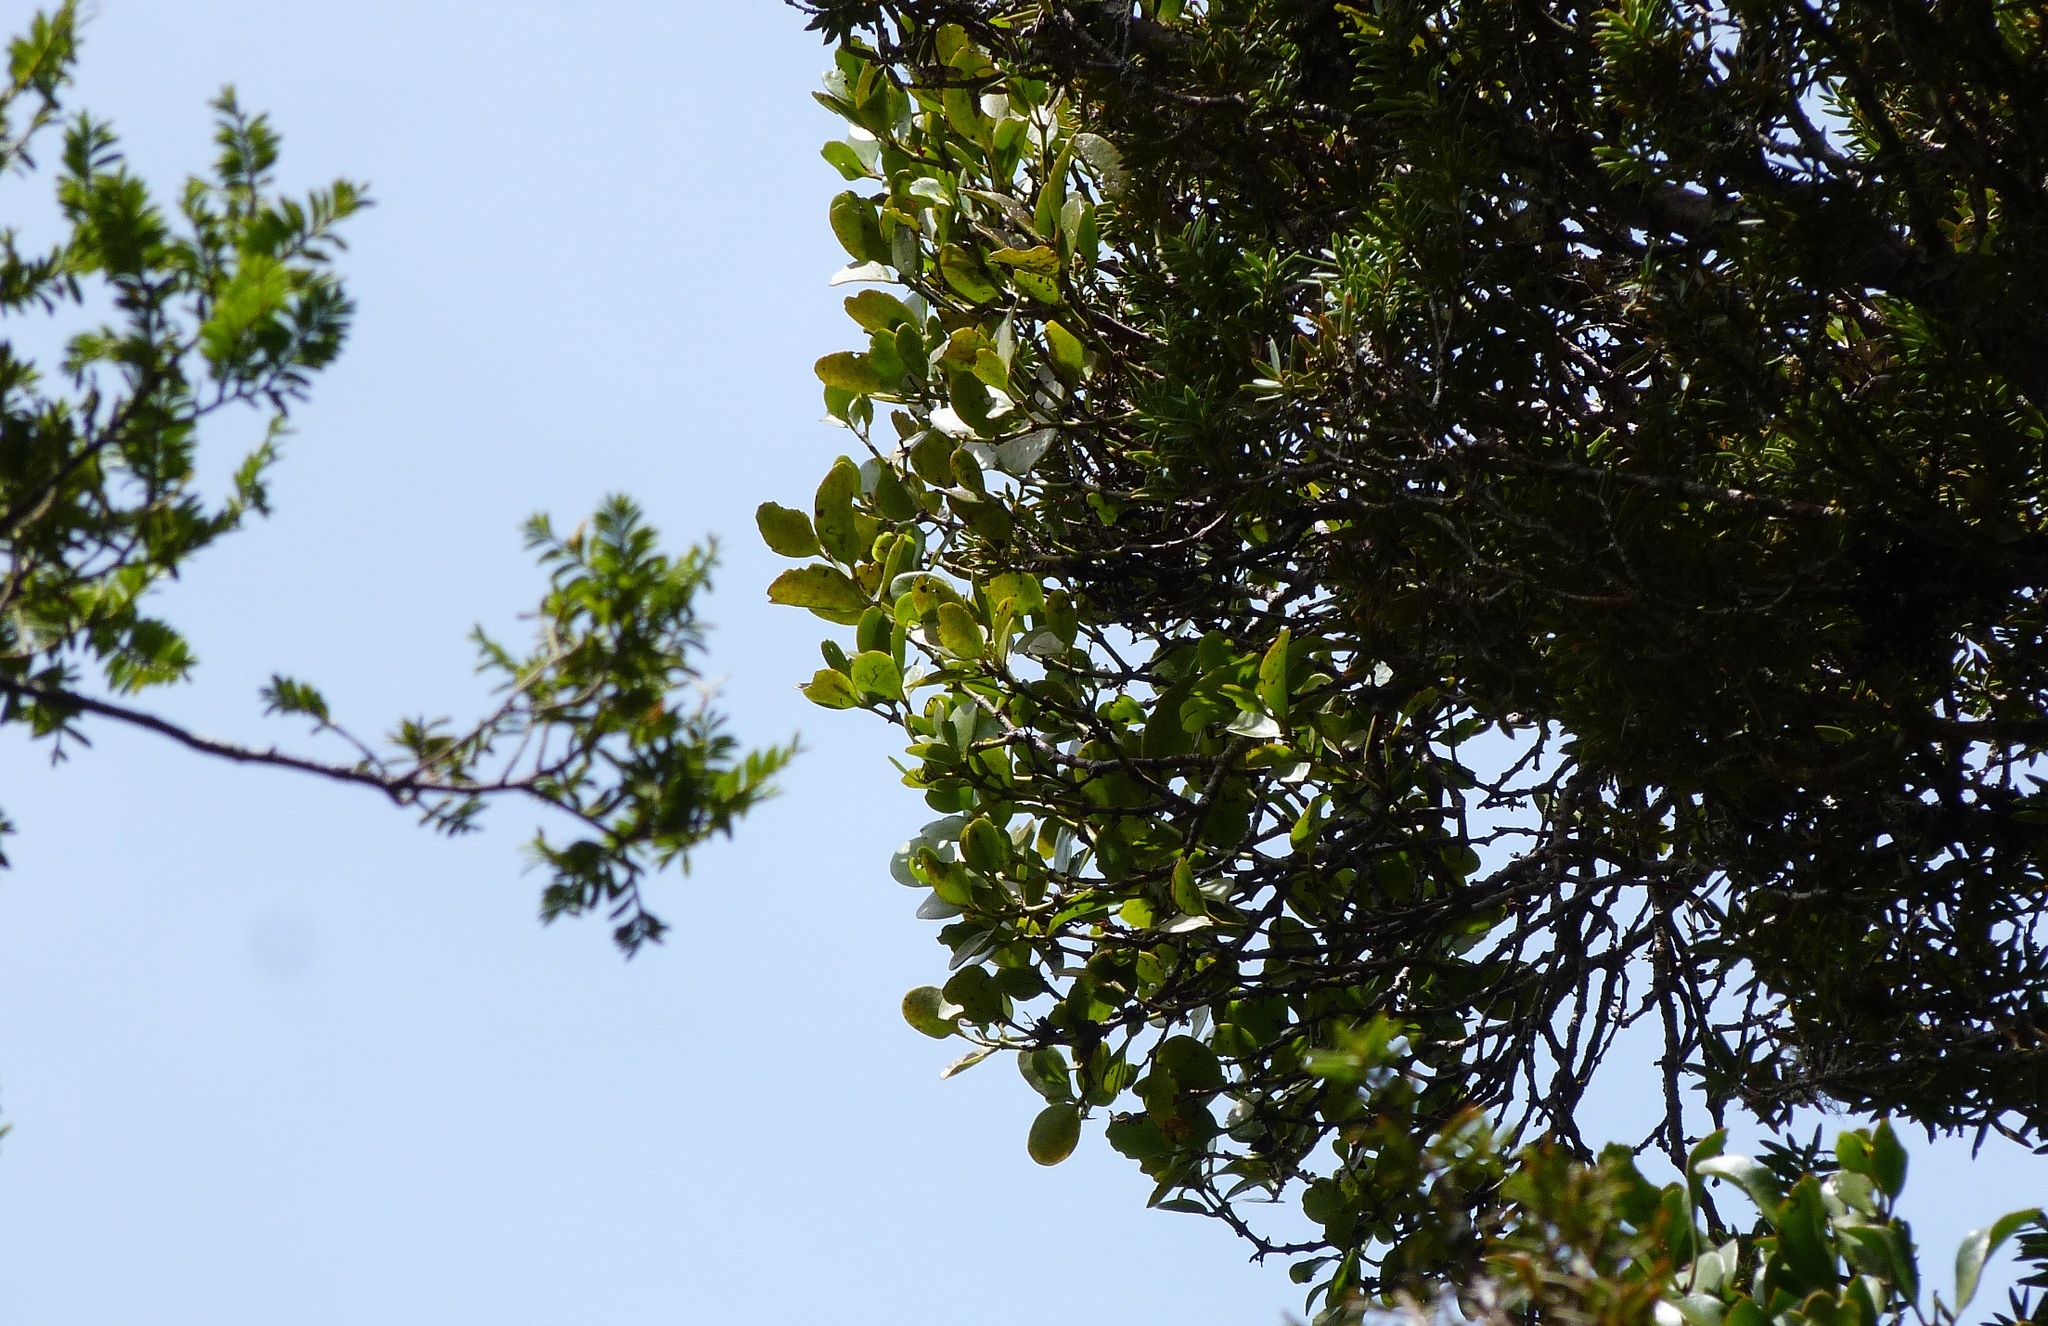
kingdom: Plantae
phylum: Tracheophyta
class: Magnoliopsida
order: Santalales
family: Loranthaceae
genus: Ileostylus
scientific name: Ileostylus micranthus
